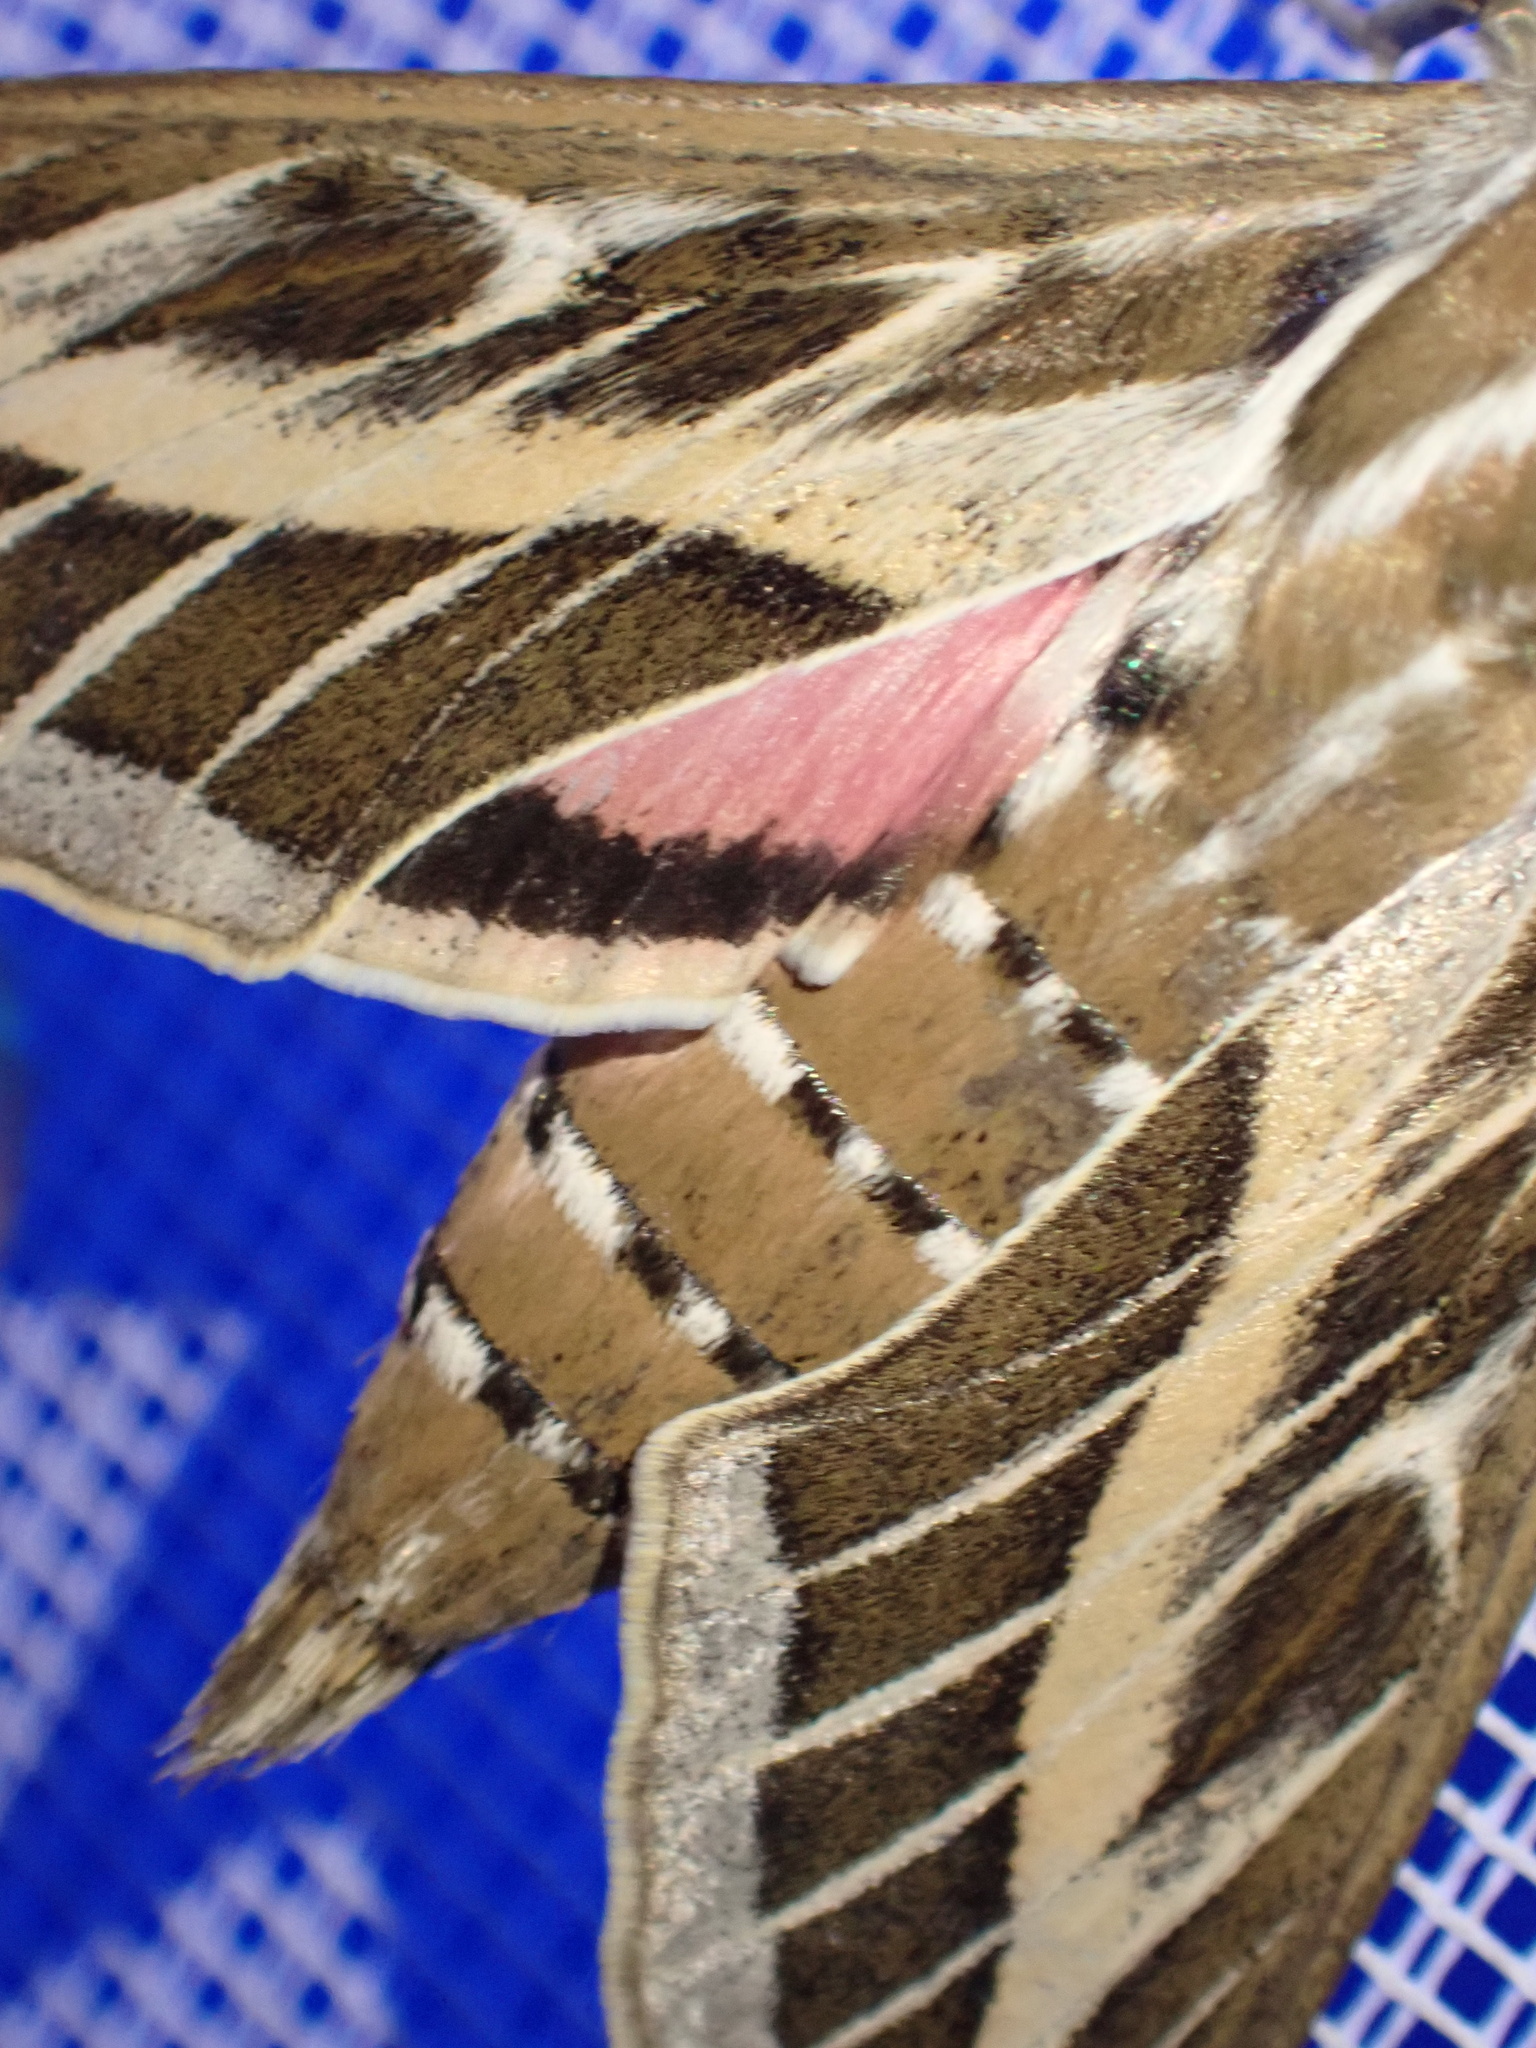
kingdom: Animalia
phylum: Arthropoda
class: Insecta
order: Lepidoptera
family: Sphingidae
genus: Hyles
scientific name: Hyles livornica
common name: Striped hawk-moth
